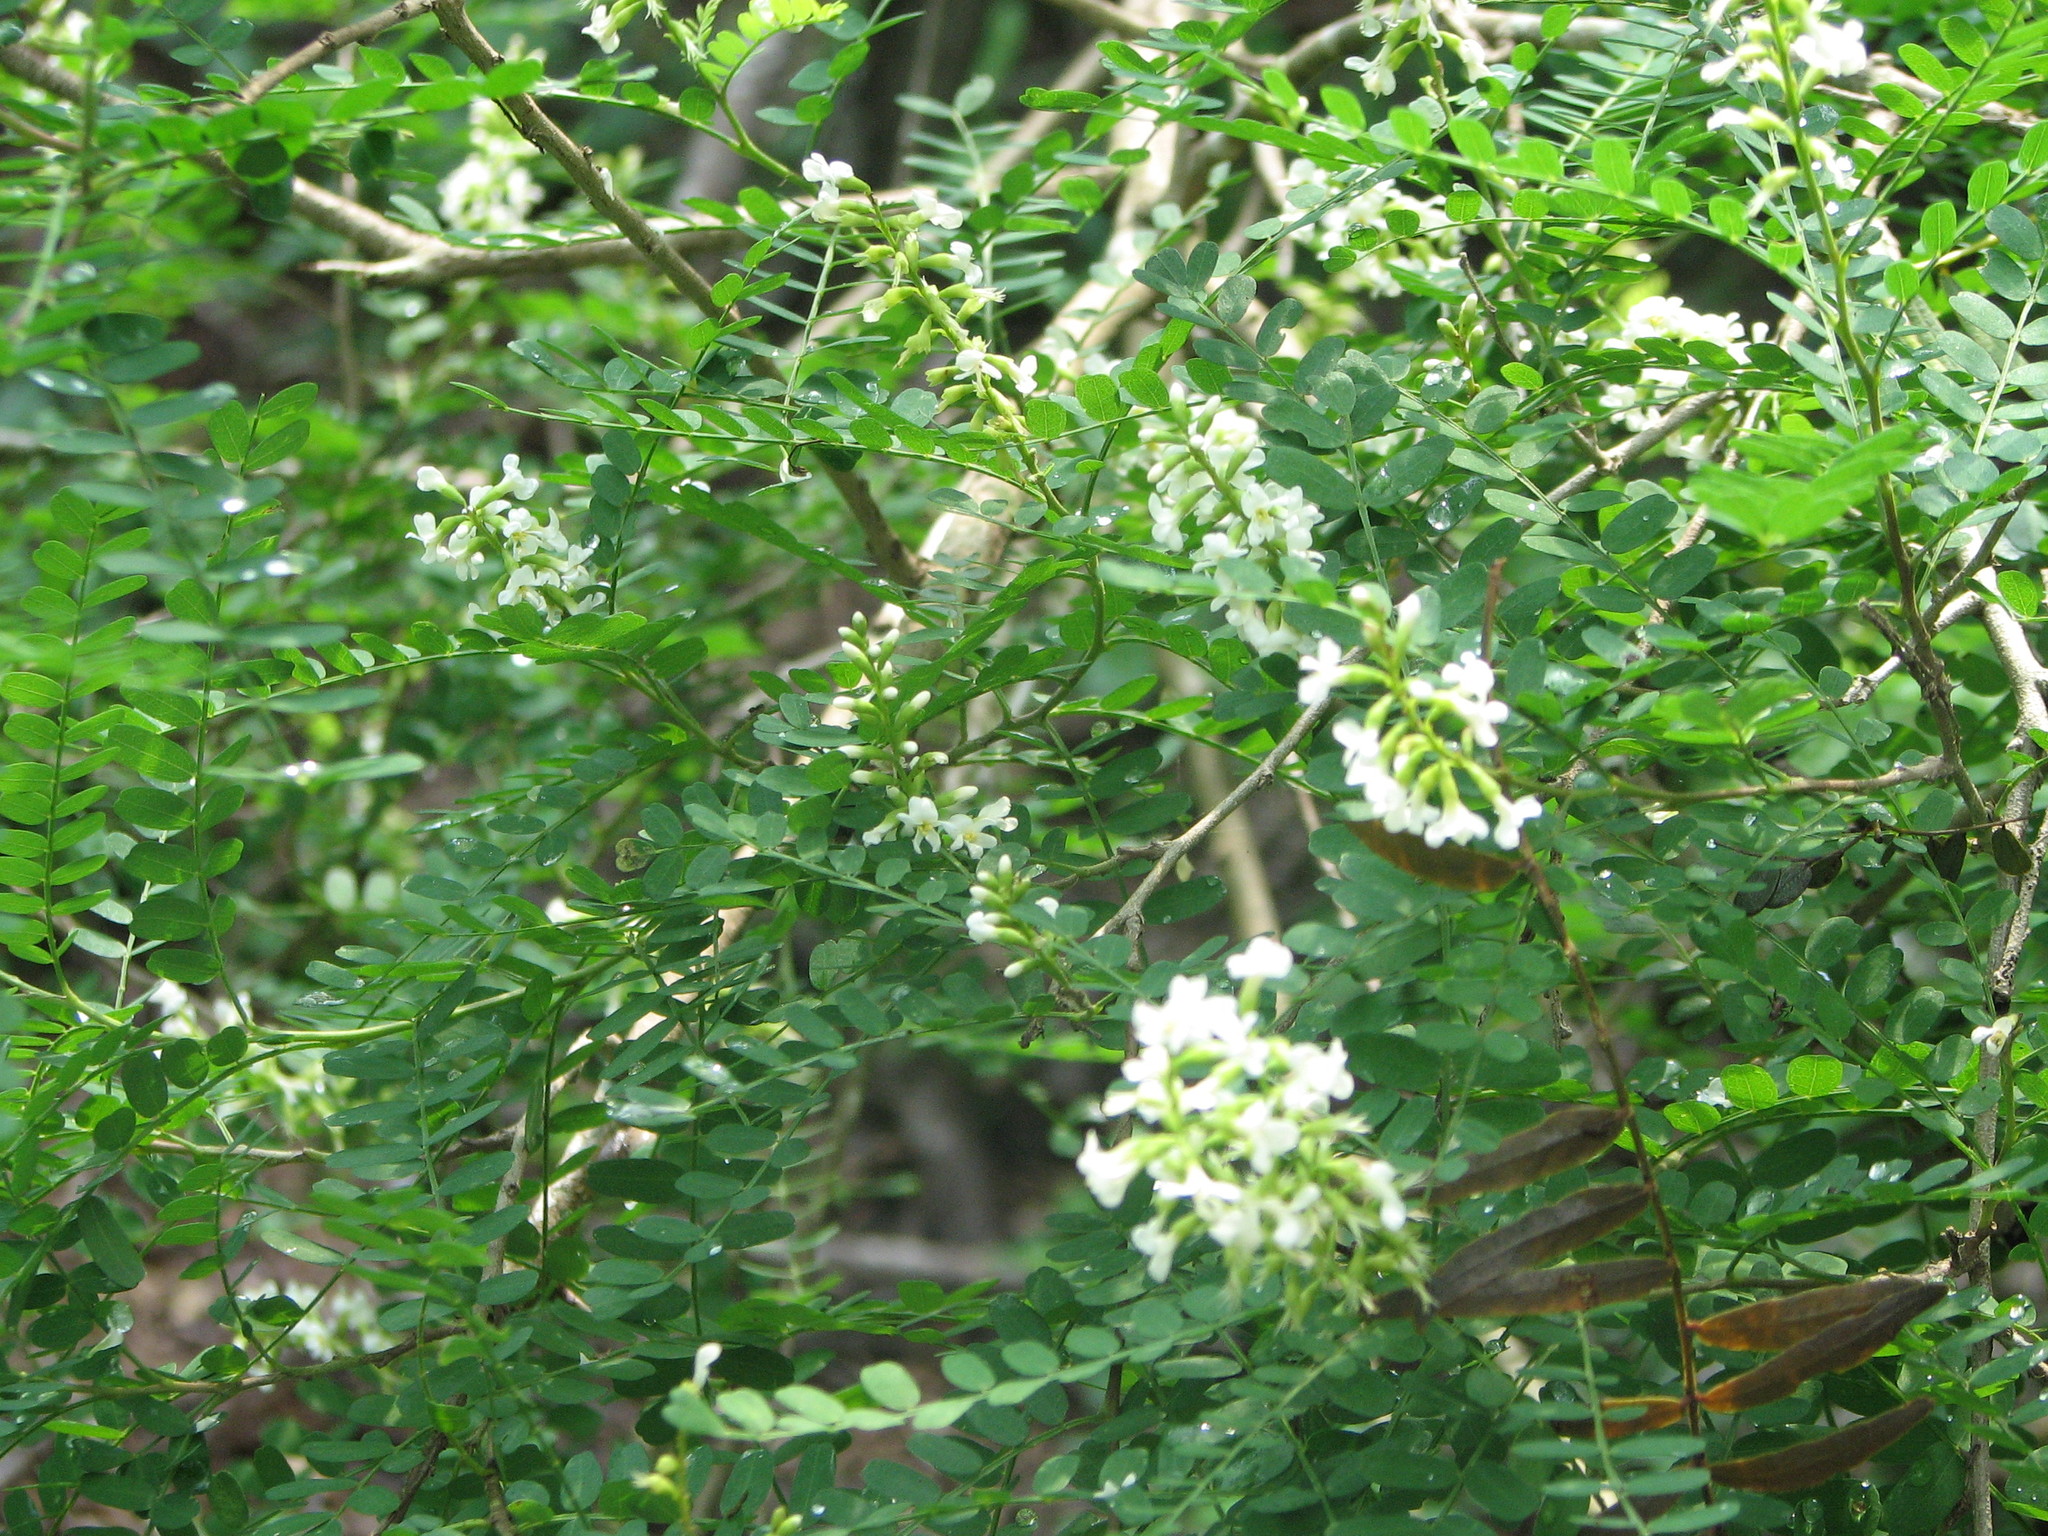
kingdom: Plantae
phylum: Tracheophyta
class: Magnoliopsida
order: Fabales
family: Fabaceae
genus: Eysenhardtia
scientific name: Eysenhardtia texana
